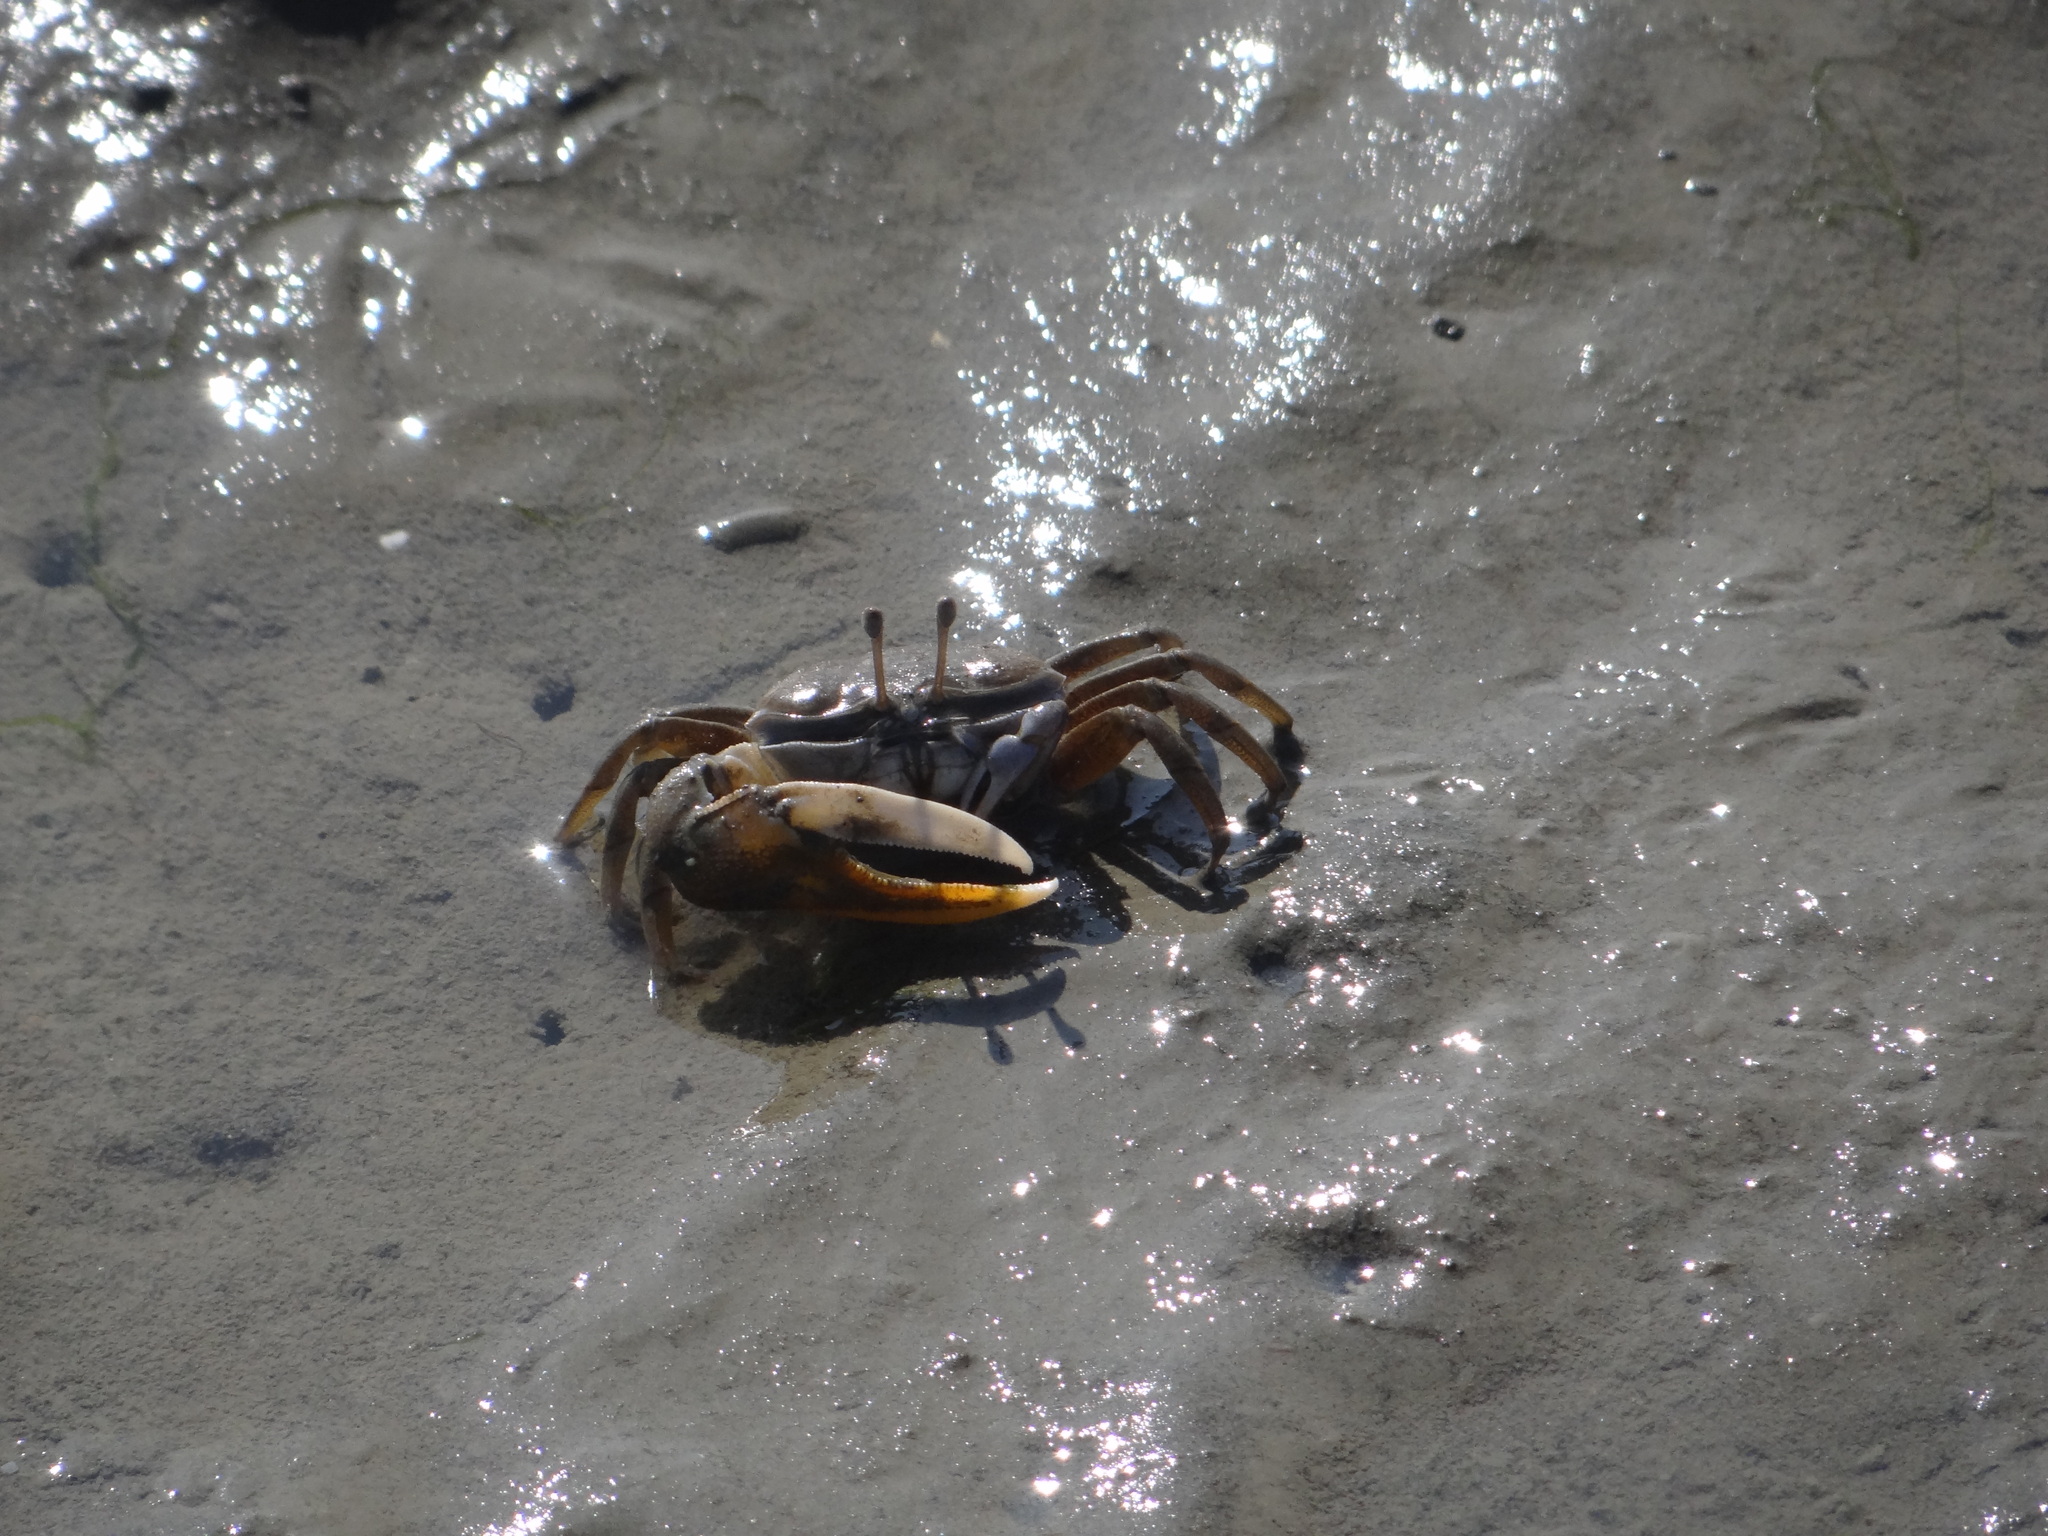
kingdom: Animalia
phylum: Arthropoda
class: Malacostraca
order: Decapoda
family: Ocypodidae
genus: Gelasimus
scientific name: Gelasimus borealis
